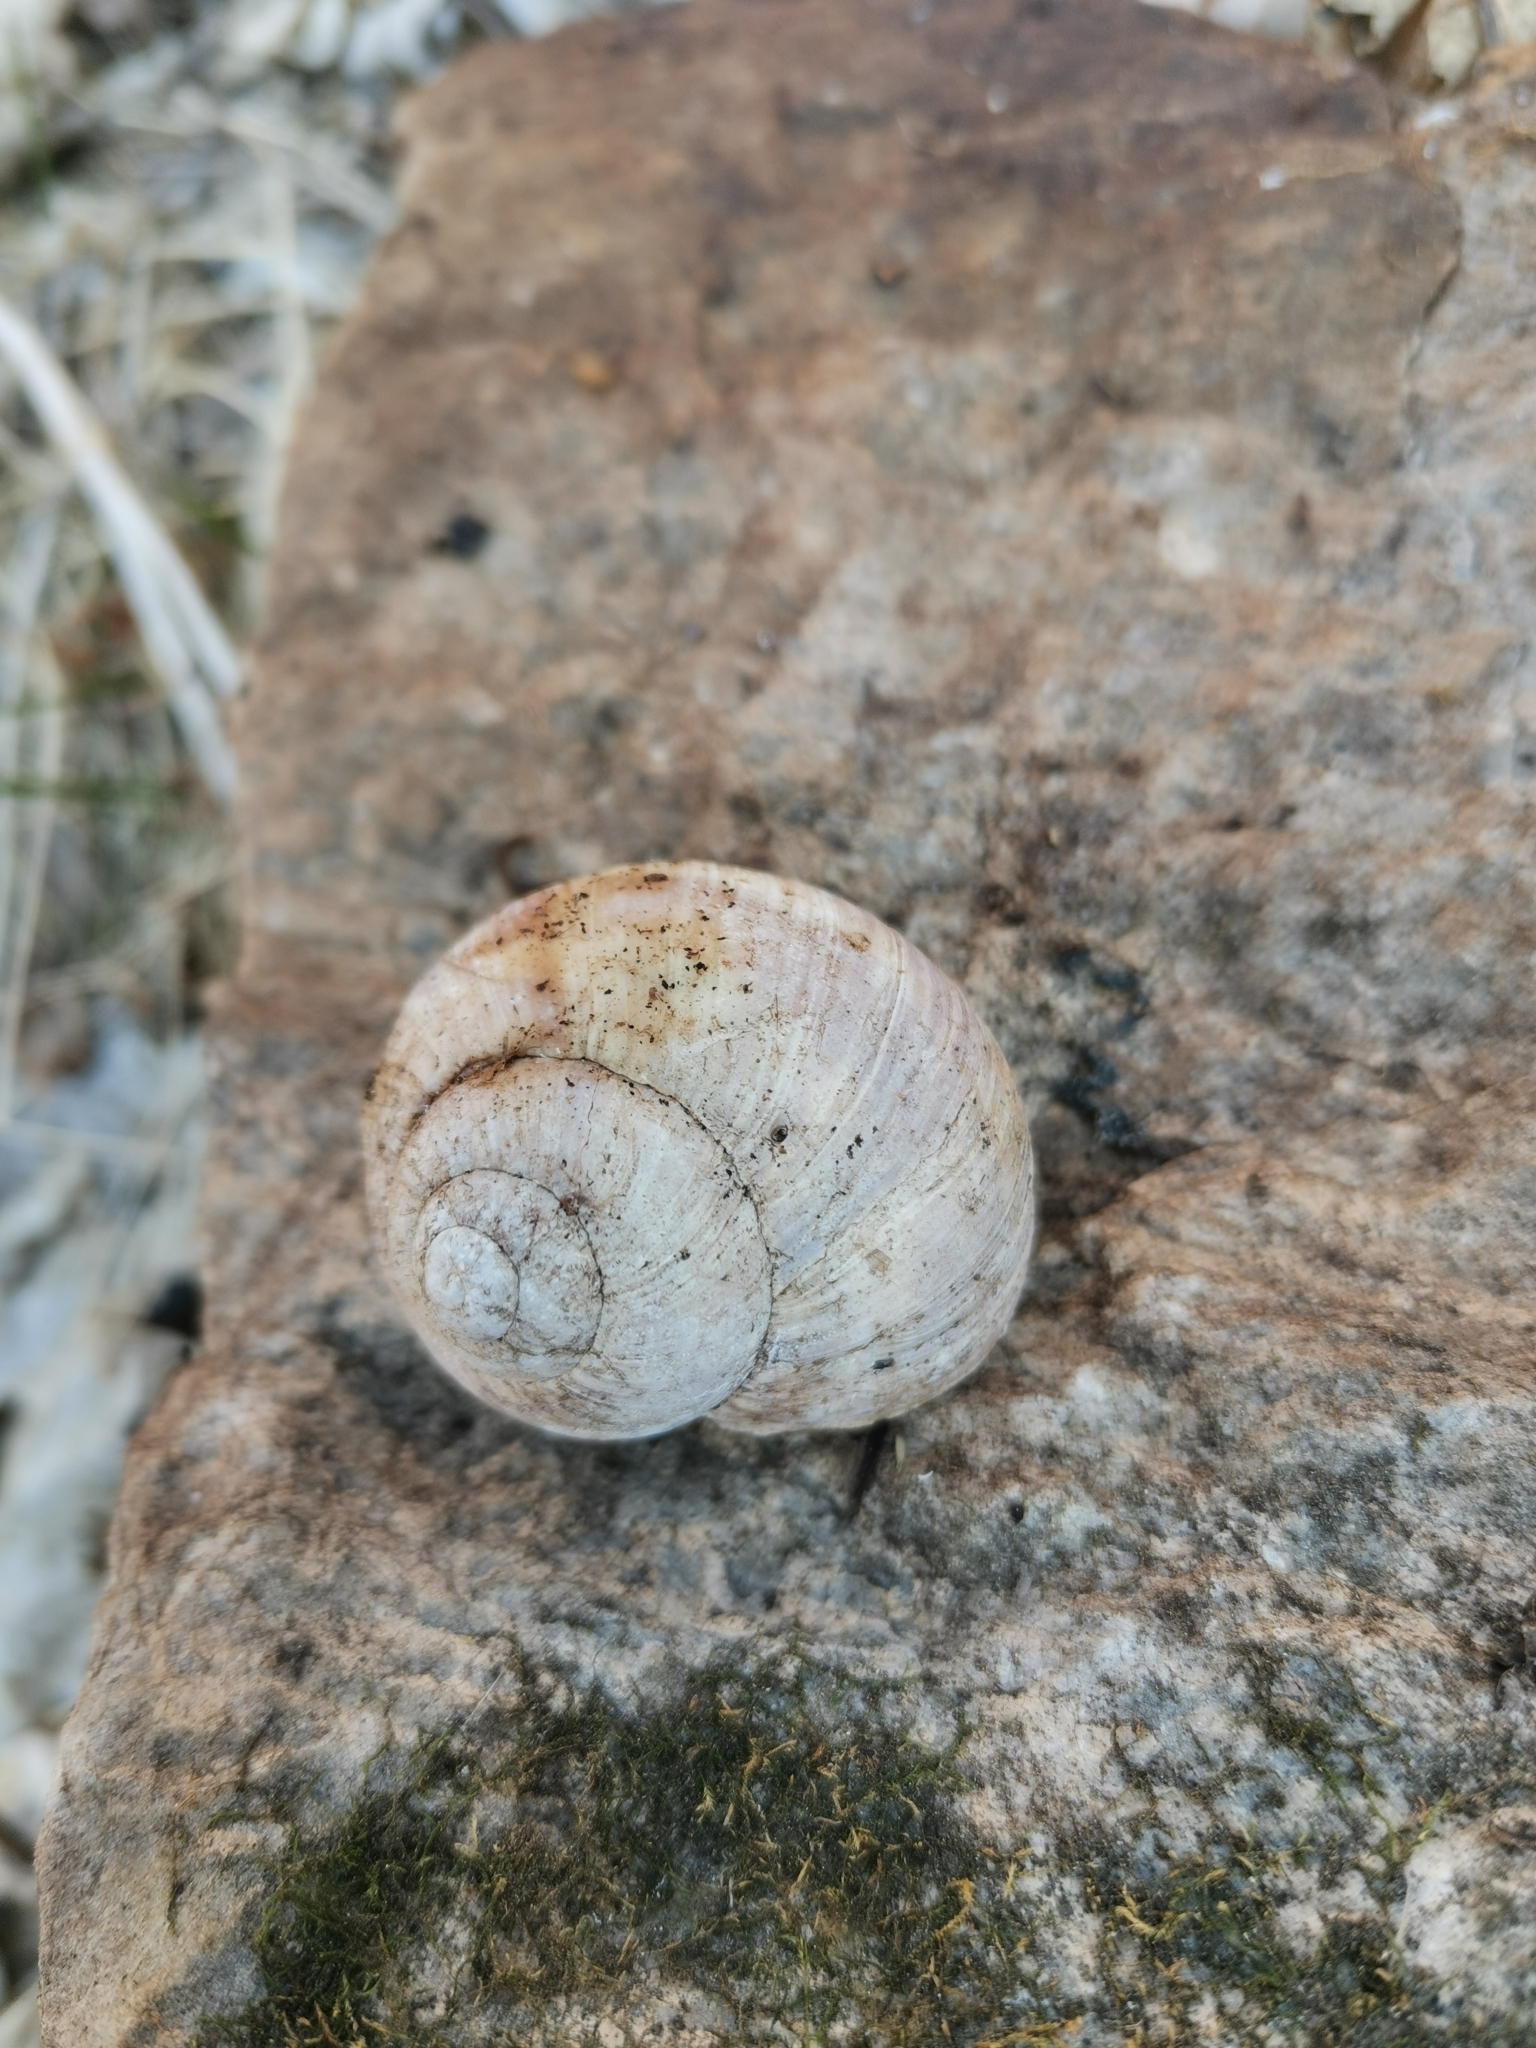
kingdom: Animalia
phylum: Mollusca
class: Gastropoda
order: Stylommatophora
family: Helicidae
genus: Helix
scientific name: Helix pomatia
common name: Roman snail
